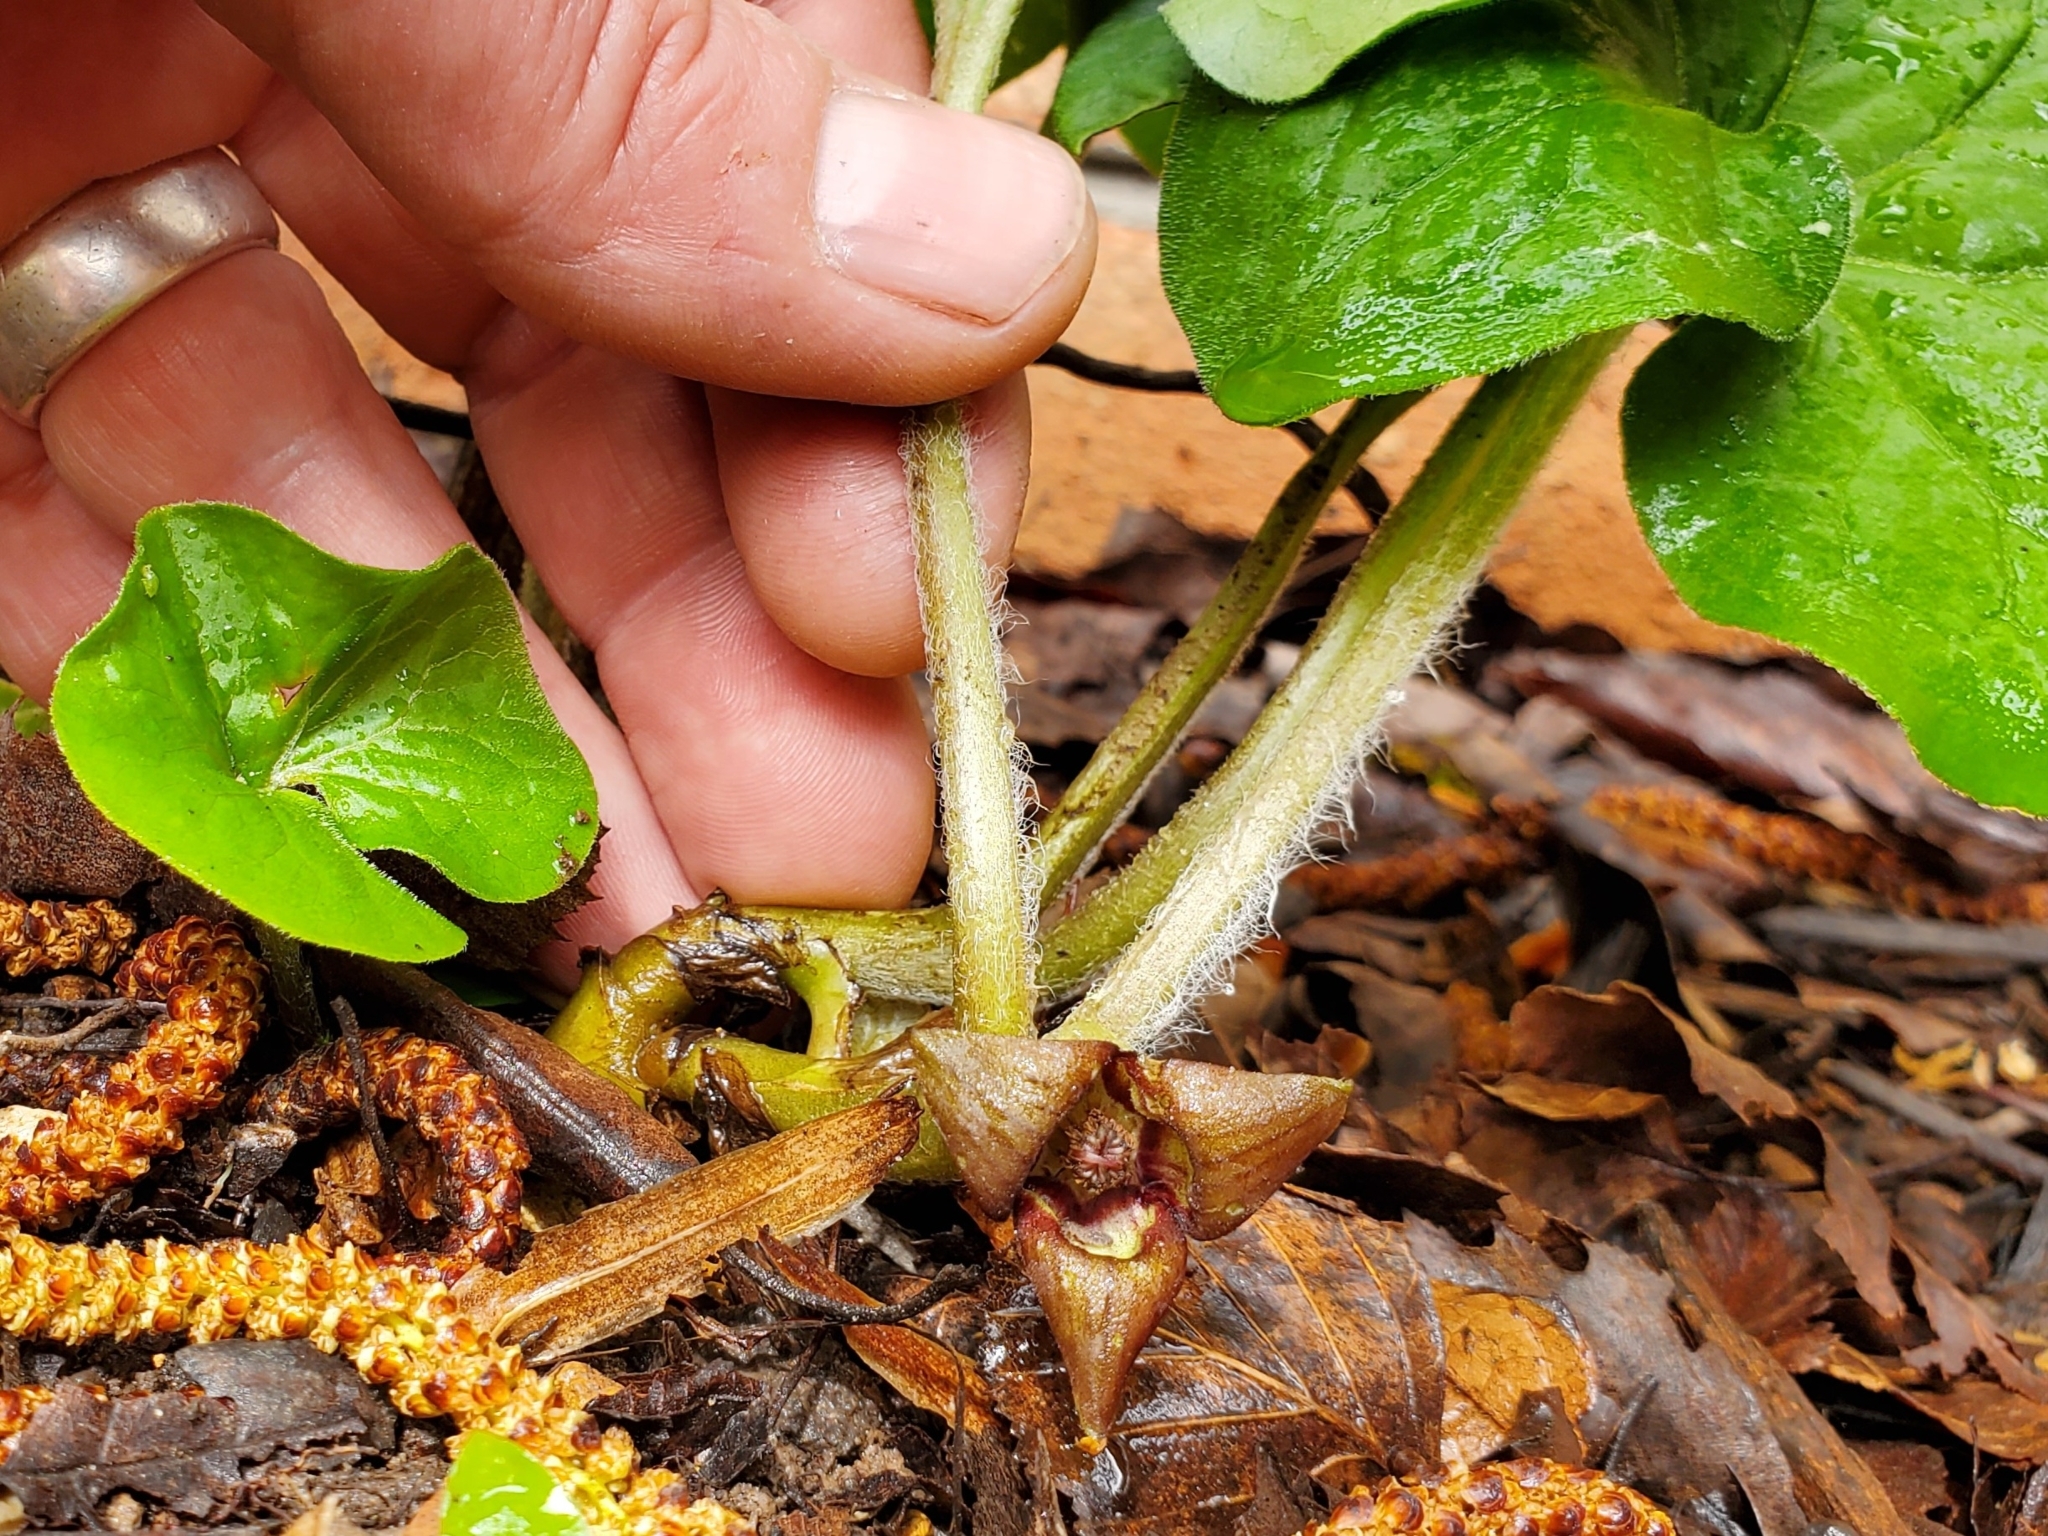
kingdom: Plantae
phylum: Tracheophyta
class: Magnoliopsida
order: Piperales
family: Aristolochiaceae
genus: Asarum
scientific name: Asarum canadense
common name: Wild ginger
